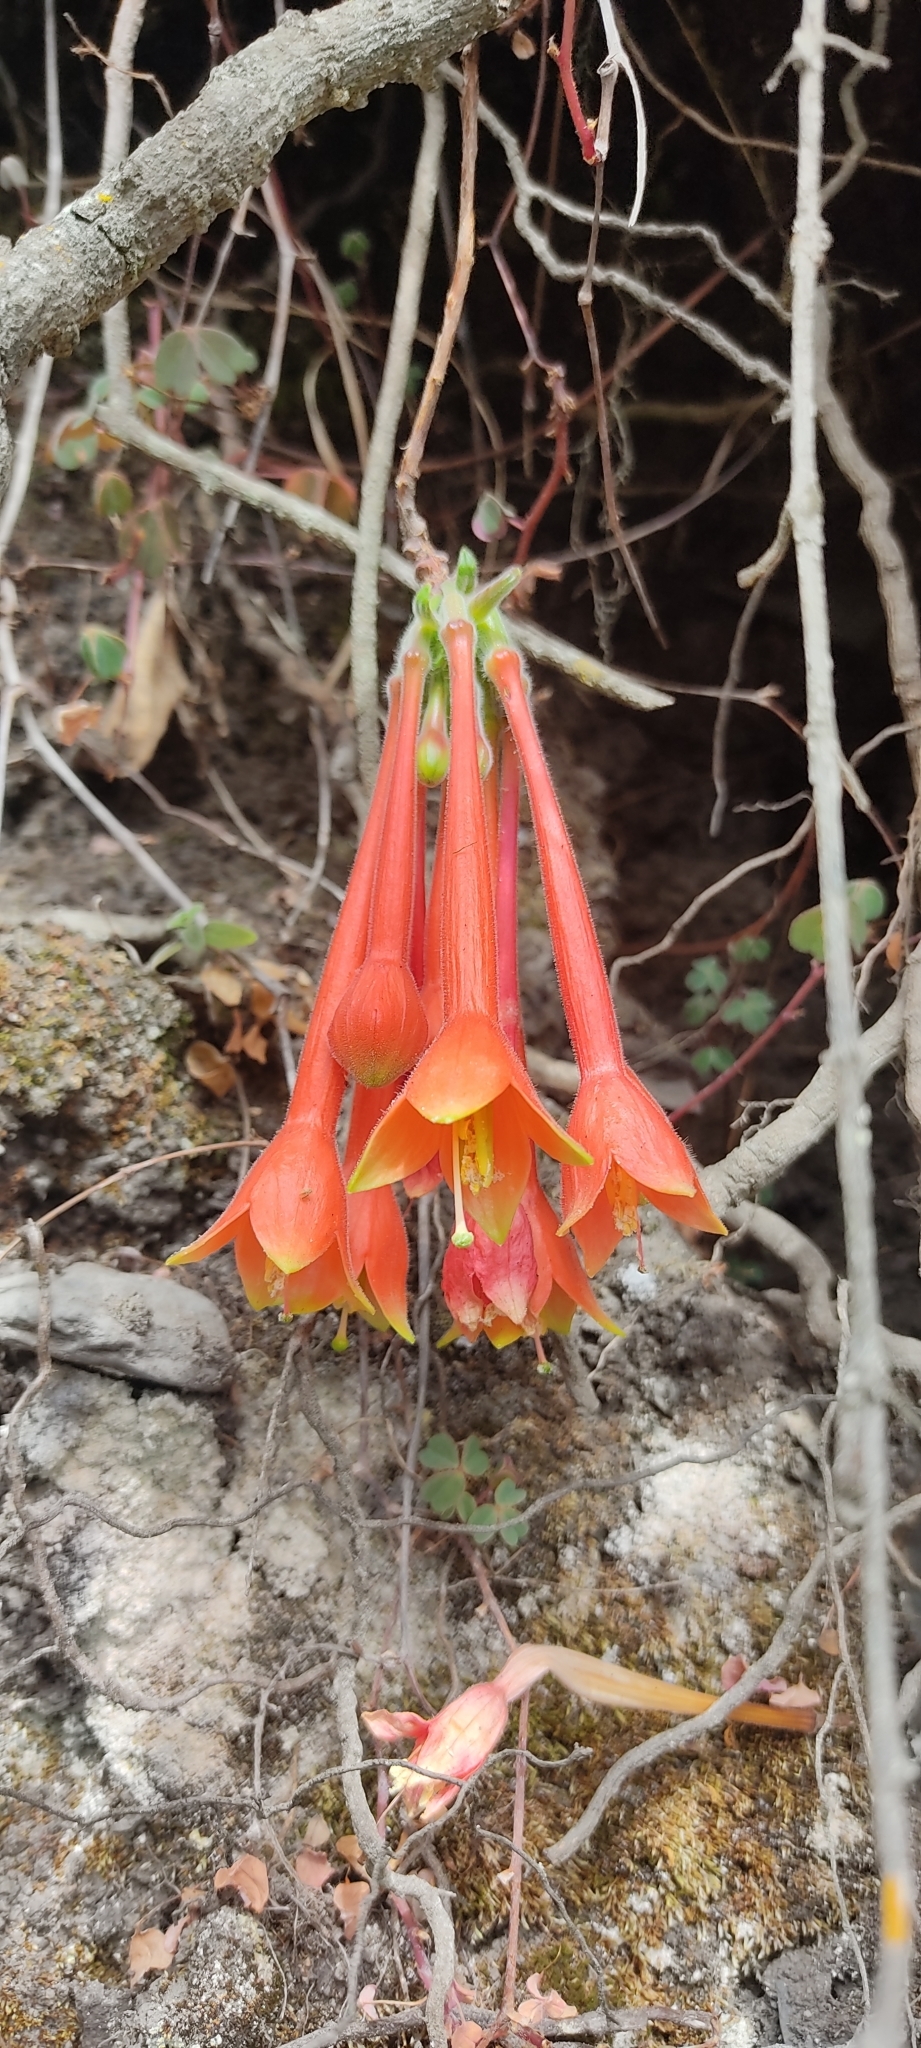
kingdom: Plantae
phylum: Tracheophyta
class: Magnoliopsida
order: Myrtales
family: Onagraceae
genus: Fuchsia
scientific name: Fuchsia apetala
